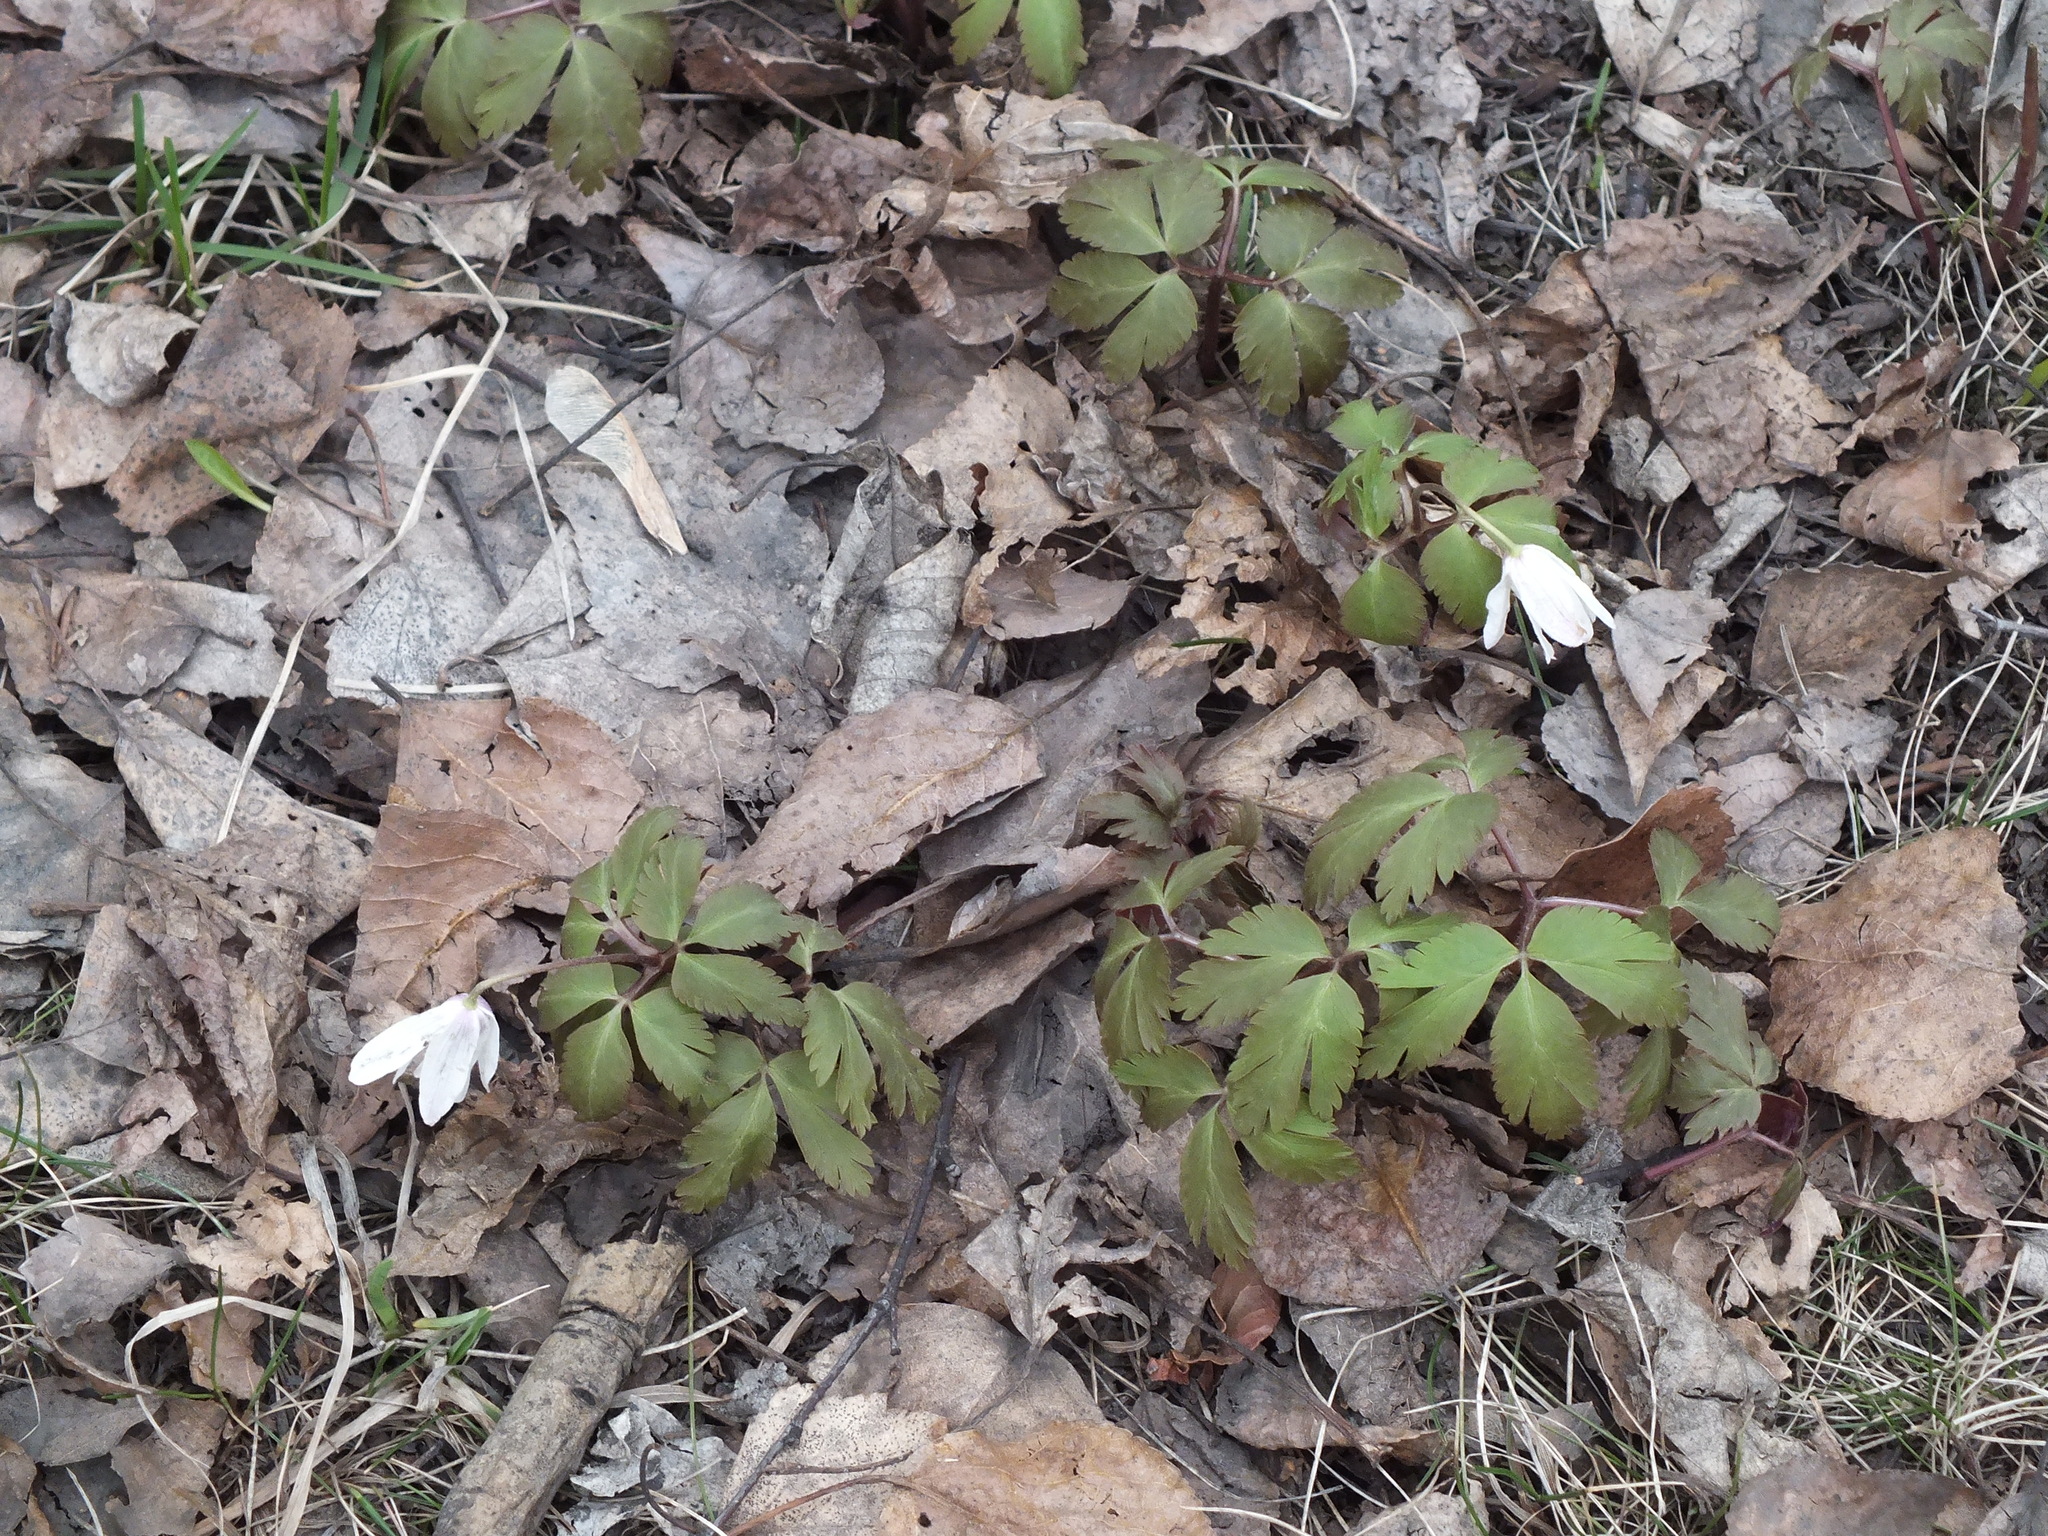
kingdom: Plantae
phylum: Tracheophyta
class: Magnoliopsida
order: Ranunculales
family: Ranunculaceae
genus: Anemone
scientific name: Anemone altaica
